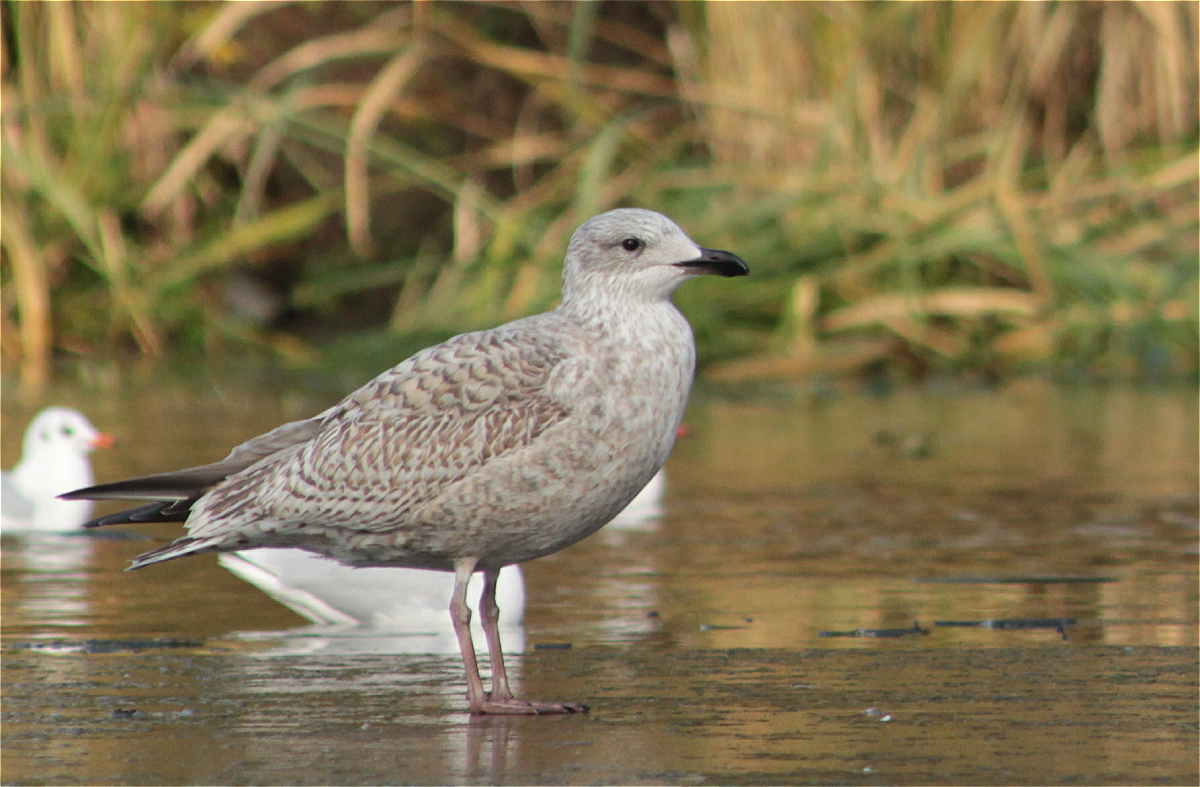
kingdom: Animalia
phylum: Chordata
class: Aves
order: Charadriiformes
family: Laridae
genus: Larus
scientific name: Larus argentatus
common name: Herring gull
